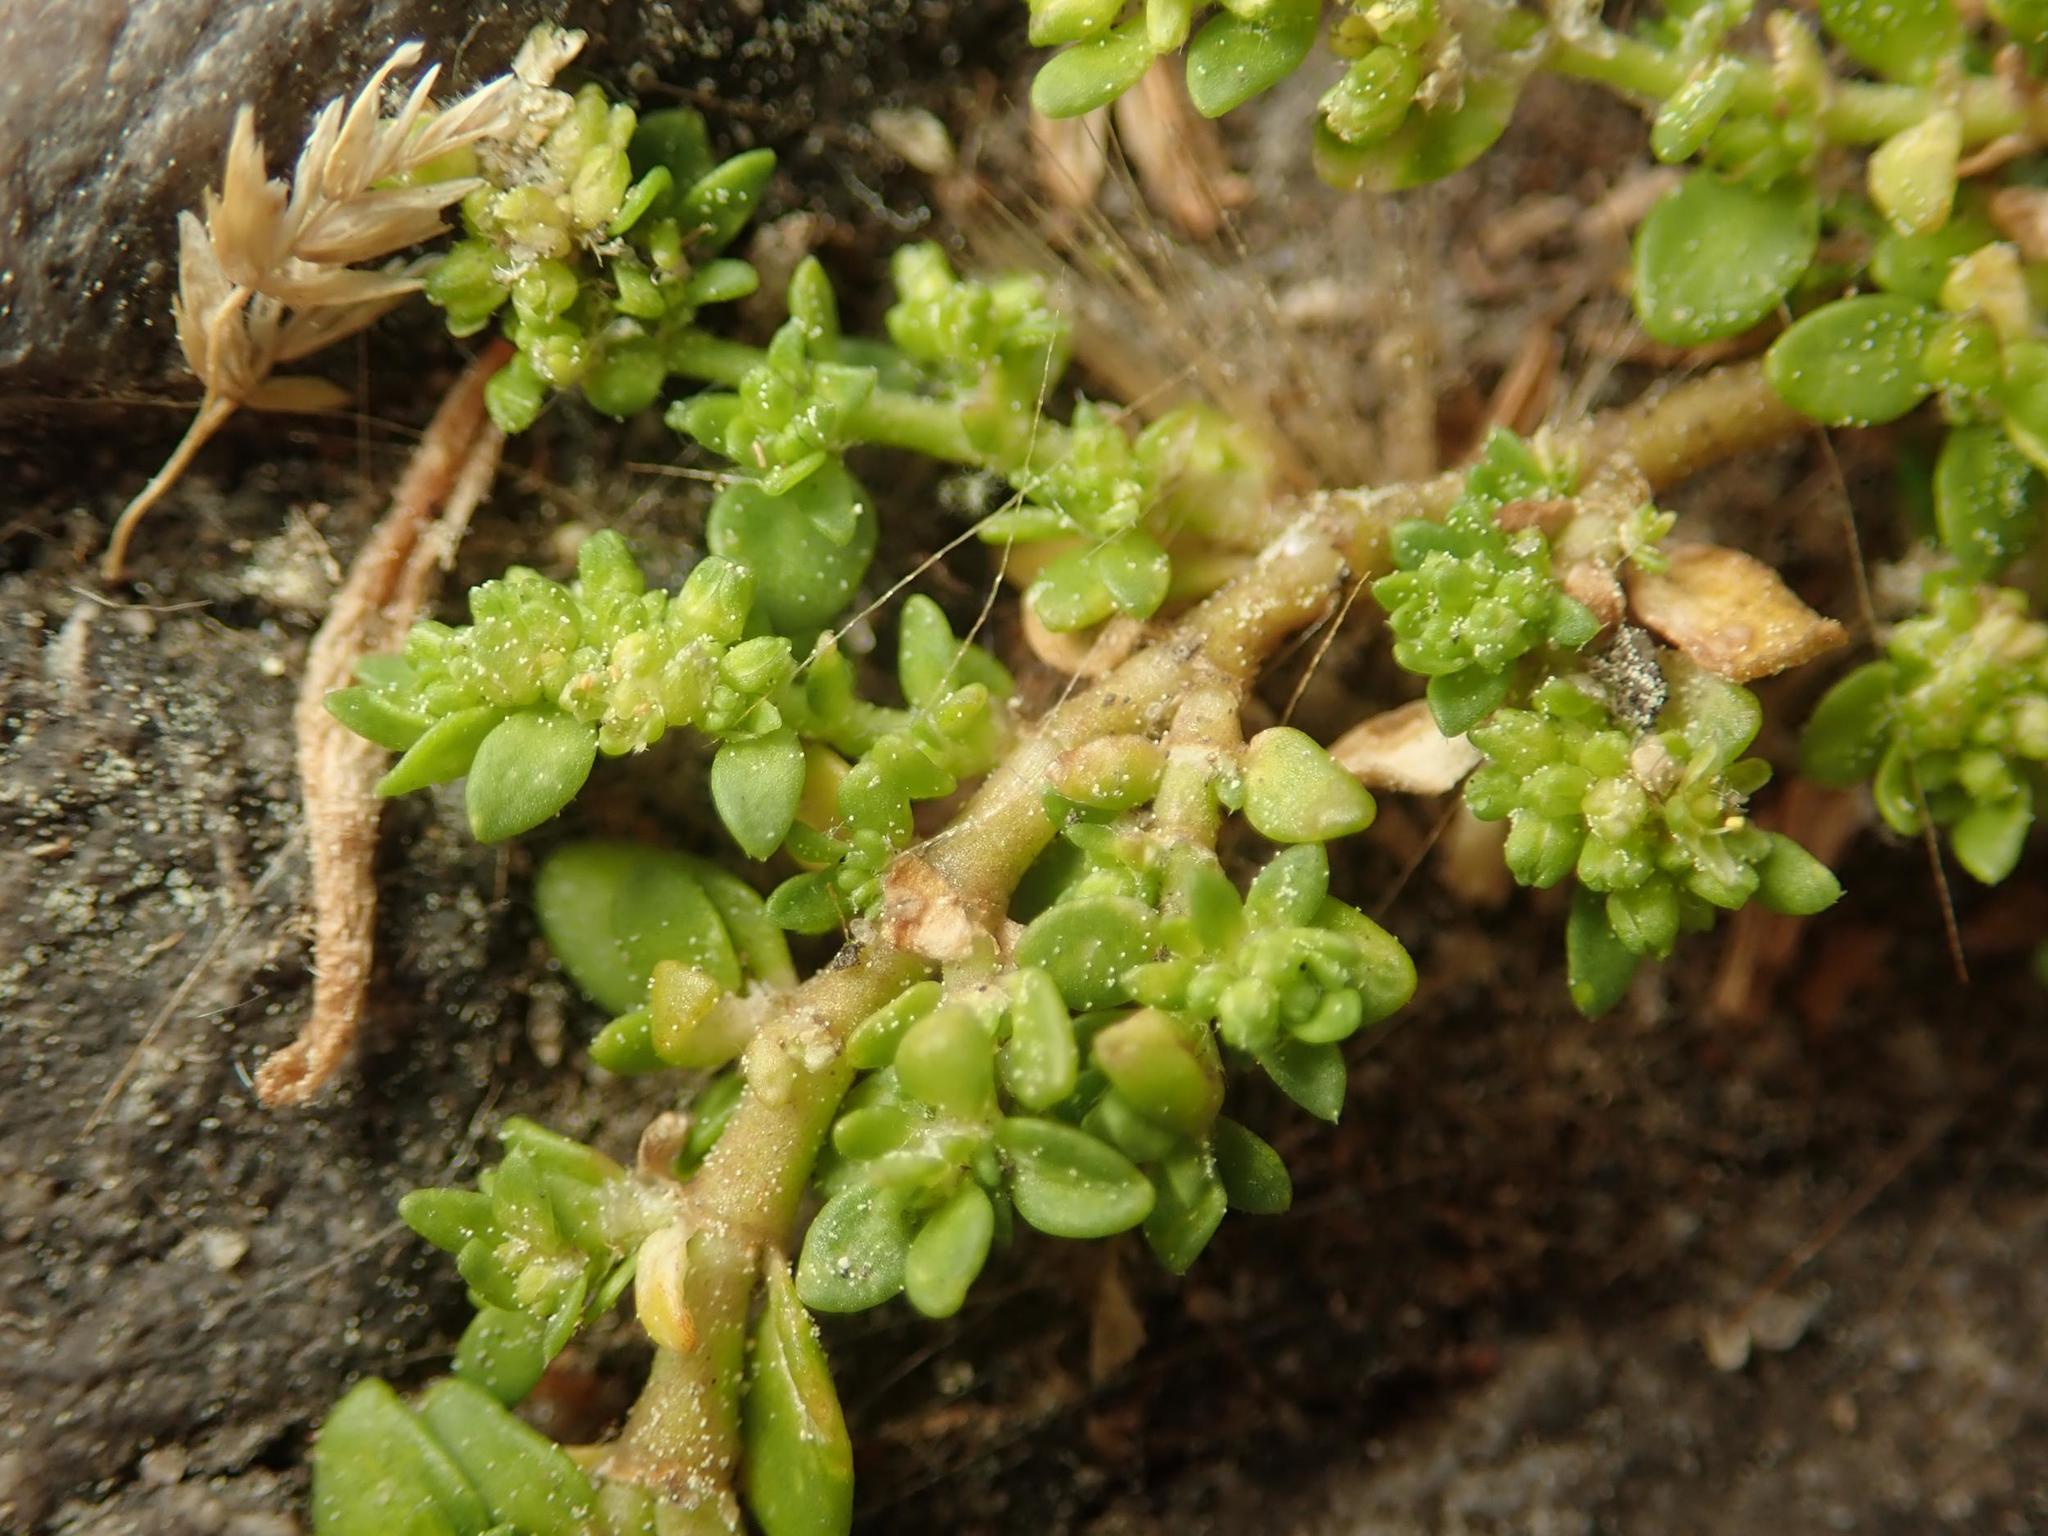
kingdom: Plantae
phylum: Tracheophyta
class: Magnoliopsida
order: Caryophyllales
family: Caryophyllaceae
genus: Herniaria
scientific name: Herniaria glabra
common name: Smooth rupturewort
